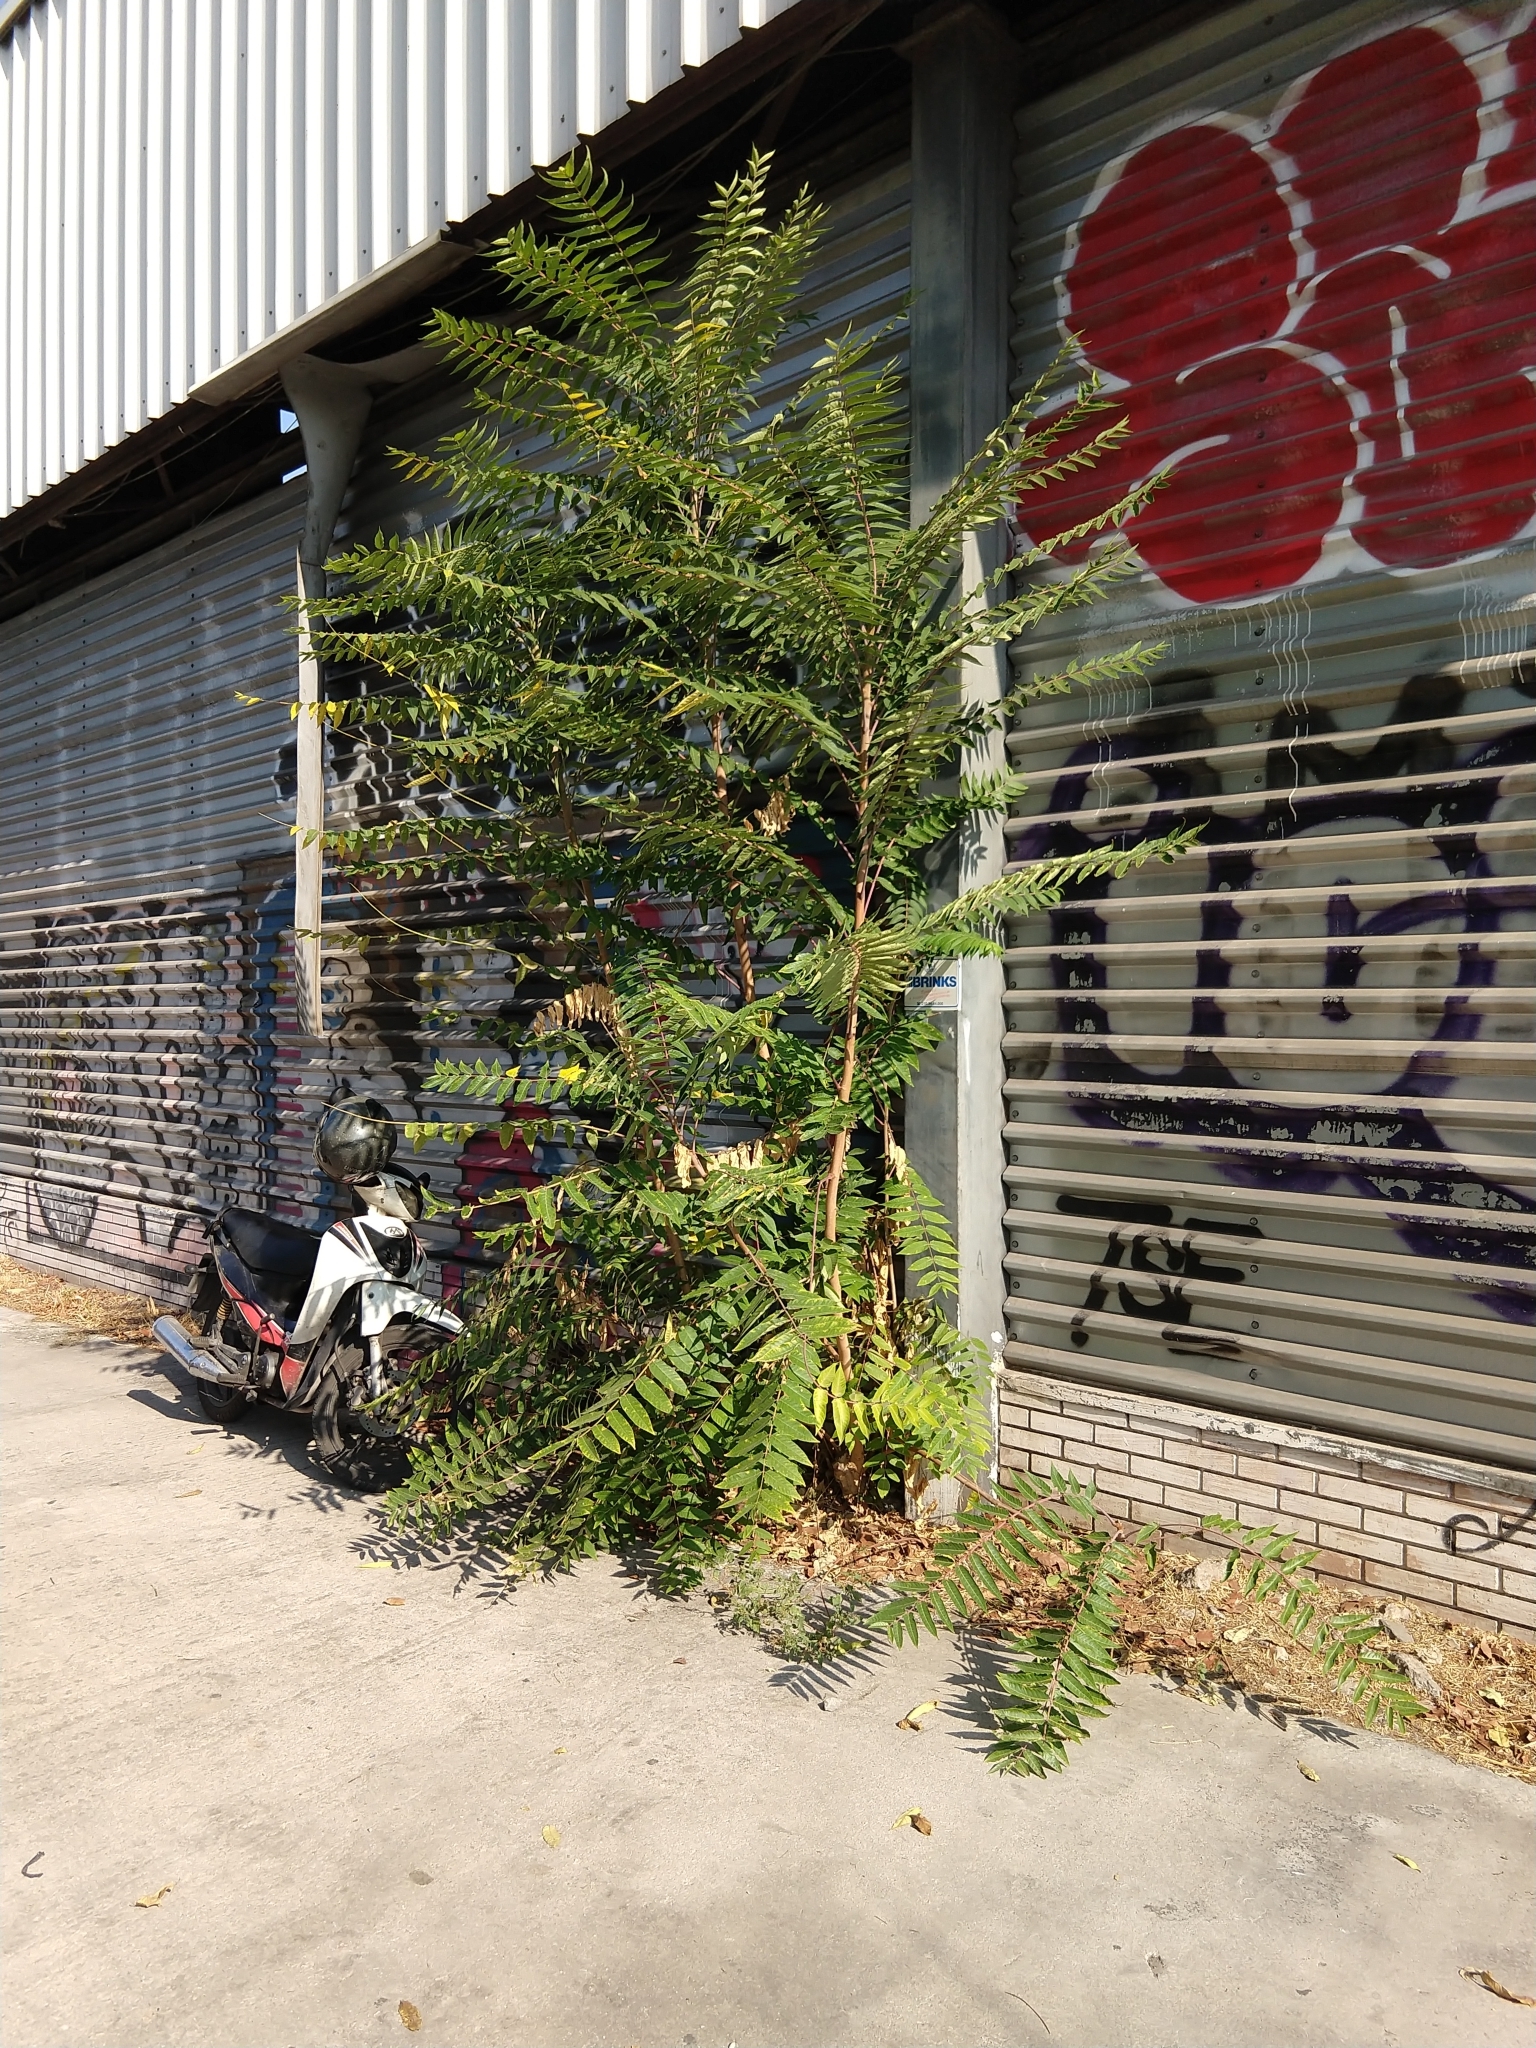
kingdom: Plantae
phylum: Tracheophyta
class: Magnoliopsida
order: Sapindales
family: Simaroubaceae
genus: Ailanthus
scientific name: Ailanthus altissima
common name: Tree-of-heaven
